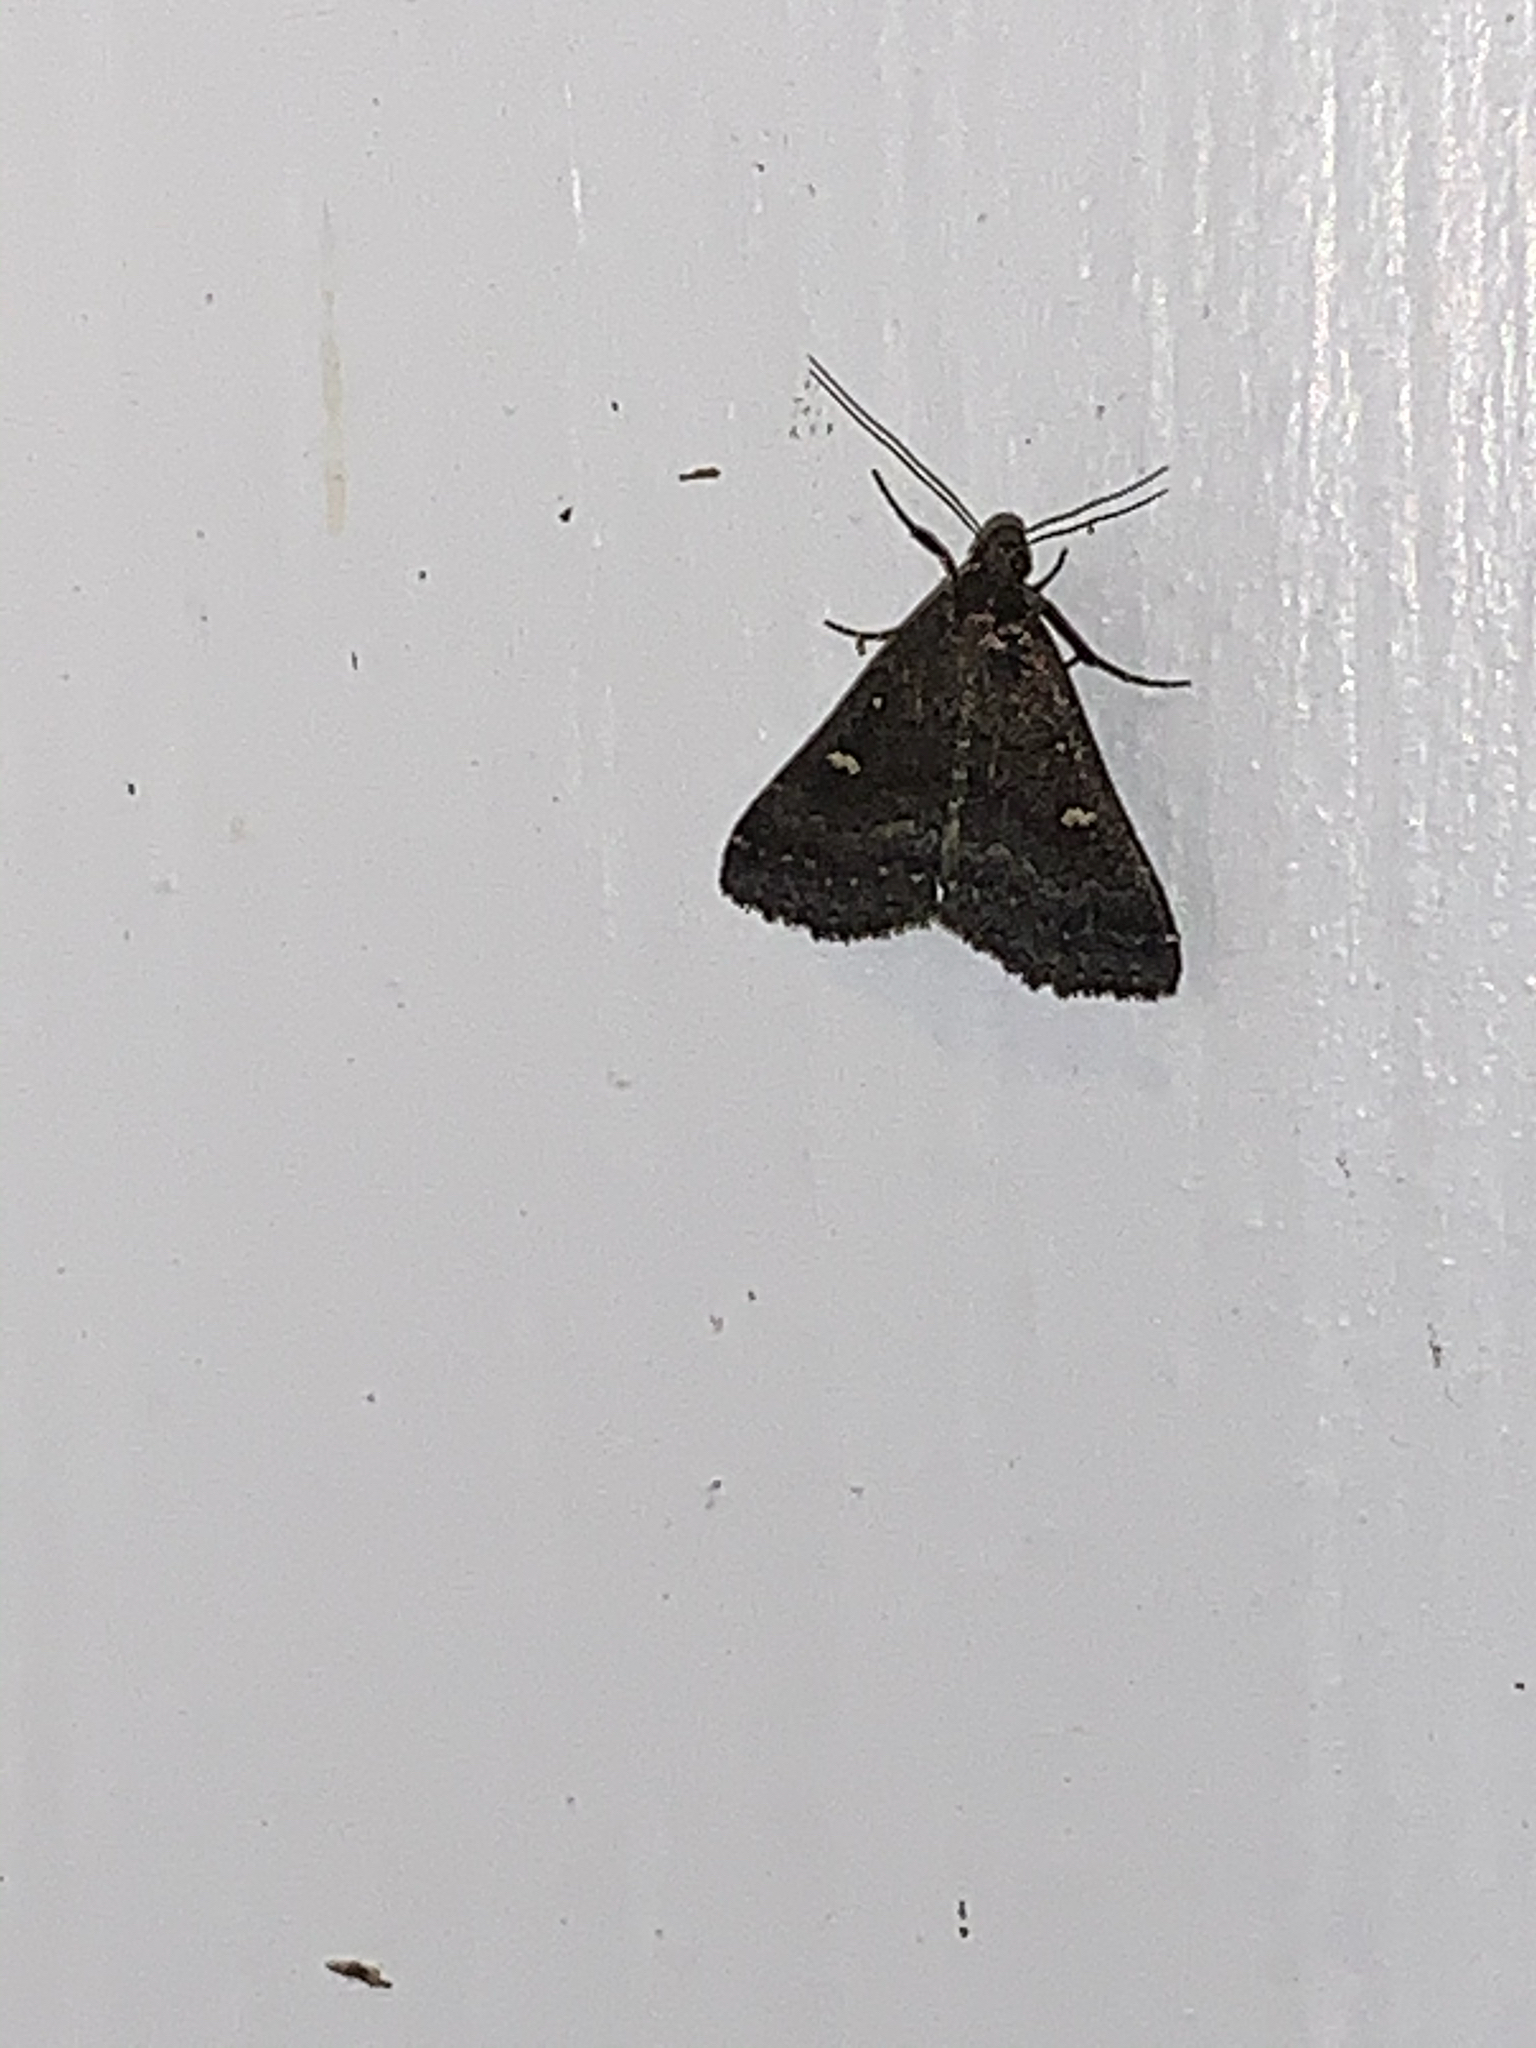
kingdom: Animalia
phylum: Arthropoda
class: Insecta
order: Lepidoptera
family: Erebidae
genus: Tetanolita
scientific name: Tetanolita mynesalis
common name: Smoky tetanolita moth
